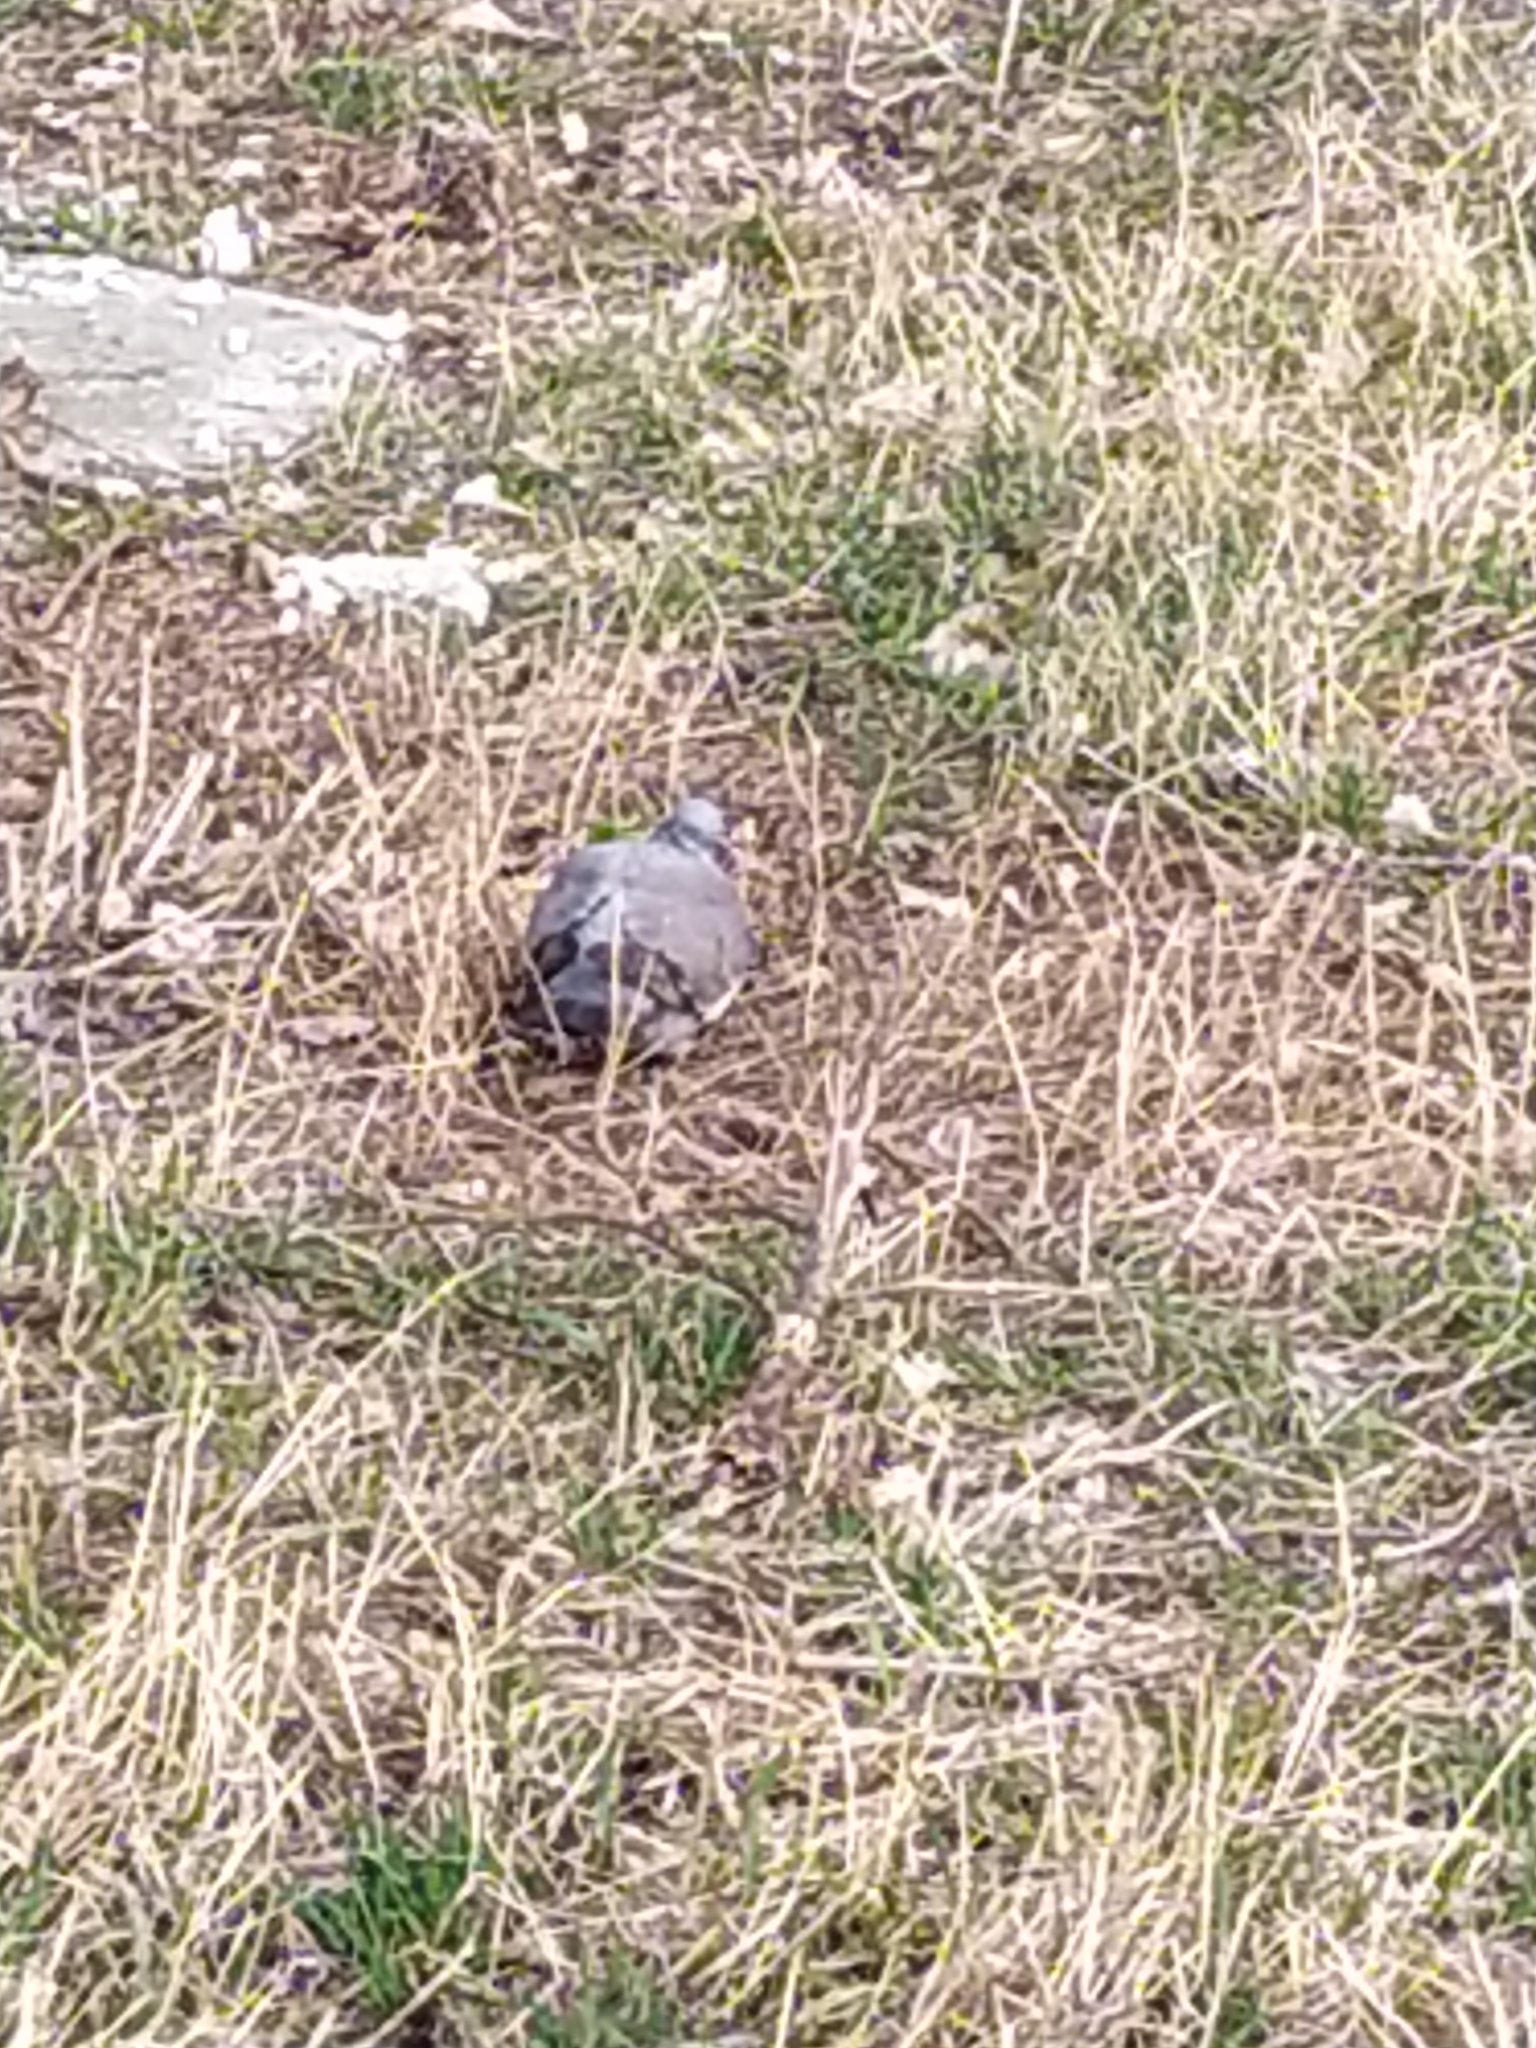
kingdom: Animalia
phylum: Chordata
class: Aves
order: Columbiformes
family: Columbidae
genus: Columba
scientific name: Columba palumbus
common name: Common wood pigeon
